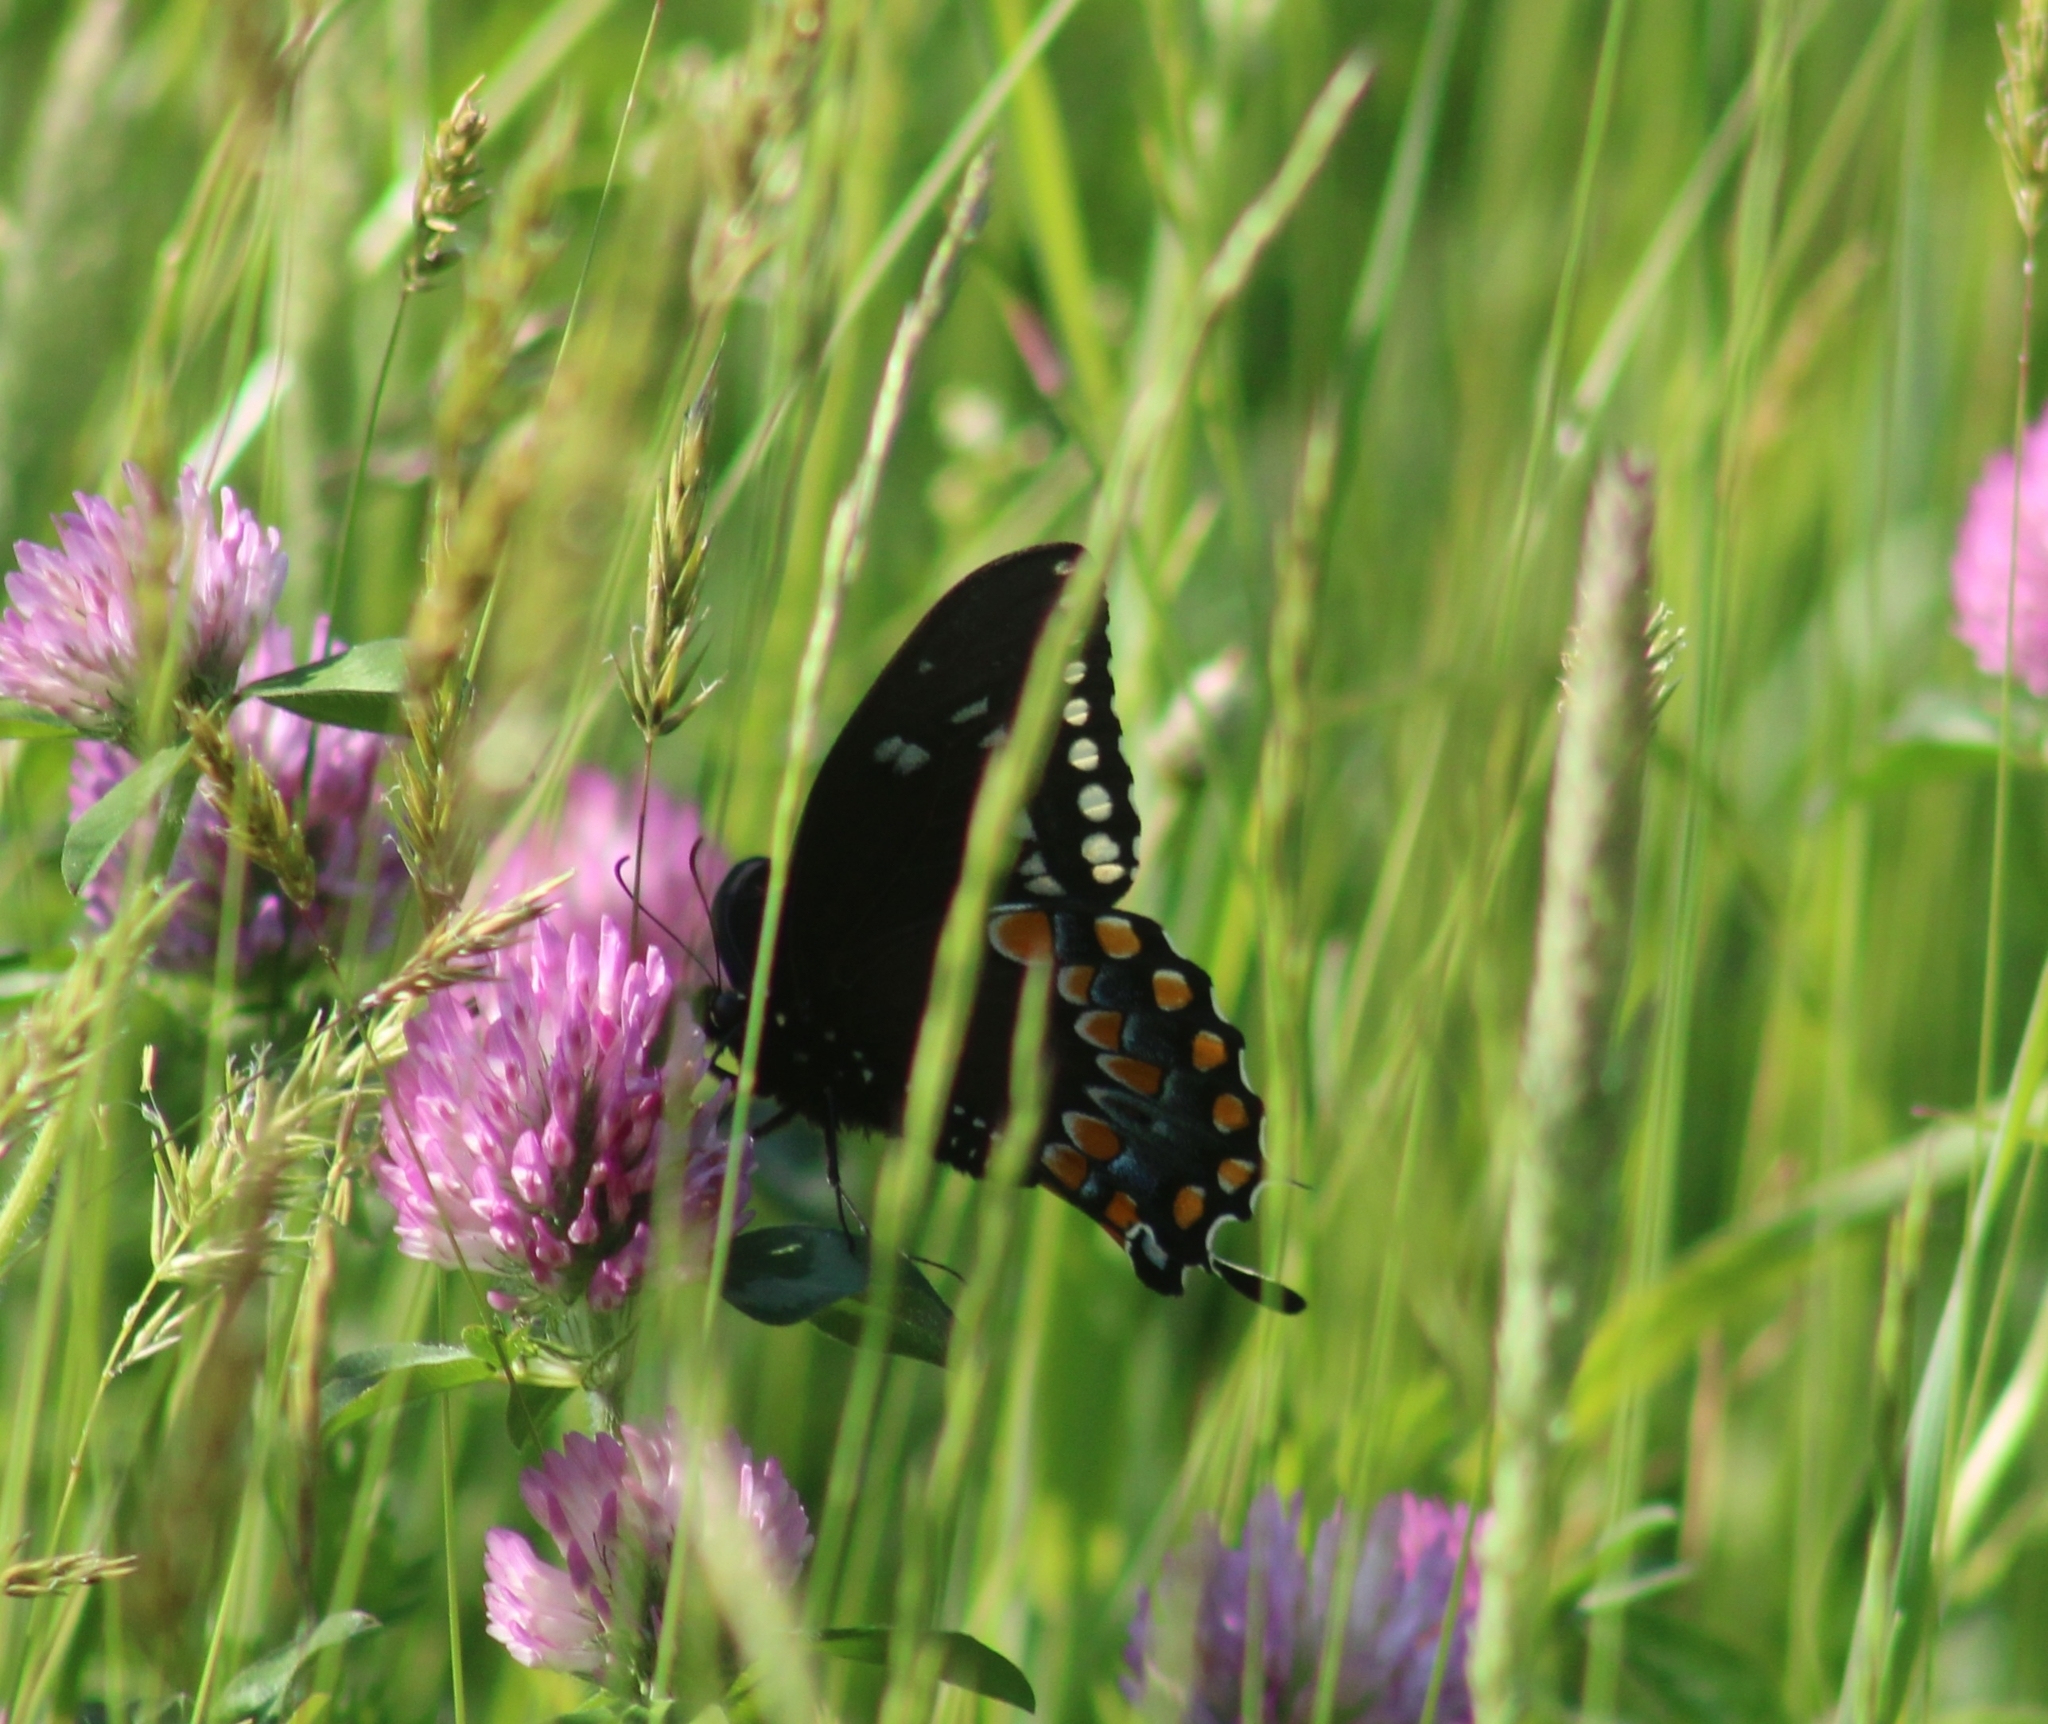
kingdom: Animalia
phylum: Arthropoda
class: Insecta
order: Lepidoptera
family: Papilionidae
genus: Papilio
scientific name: Papilio troilus
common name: Spicebush swallowtail
